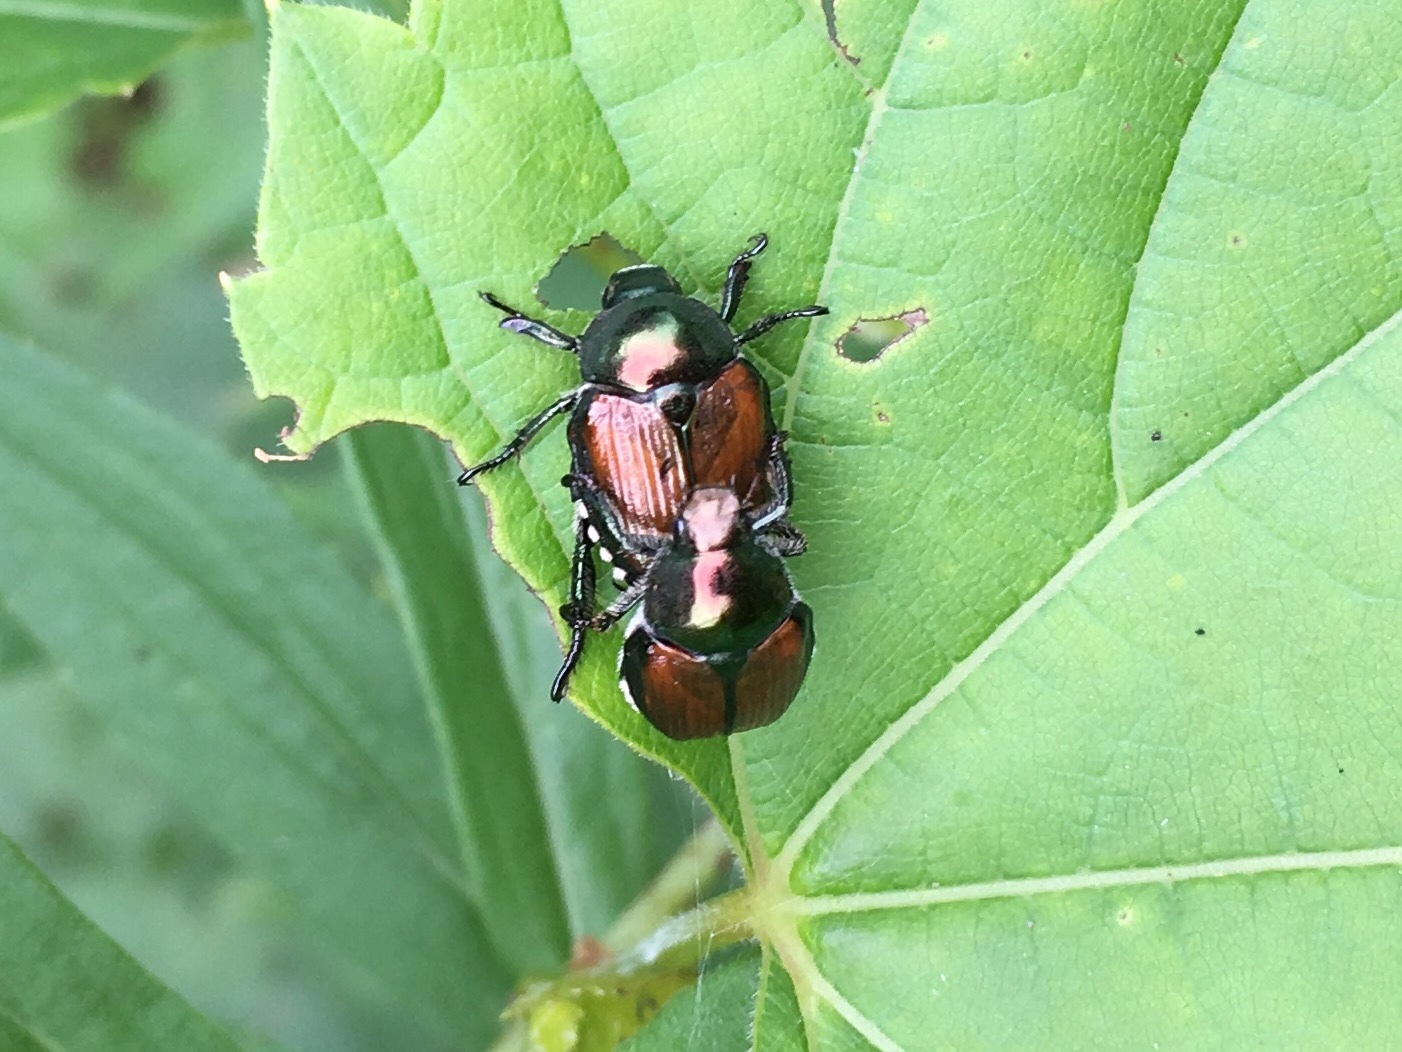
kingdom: Animalia
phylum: Arthropoda
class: Insecta
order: Coleoptera
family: Scarabaeidae
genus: Popillia
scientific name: Popillia japonica
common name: Japanese beetle
